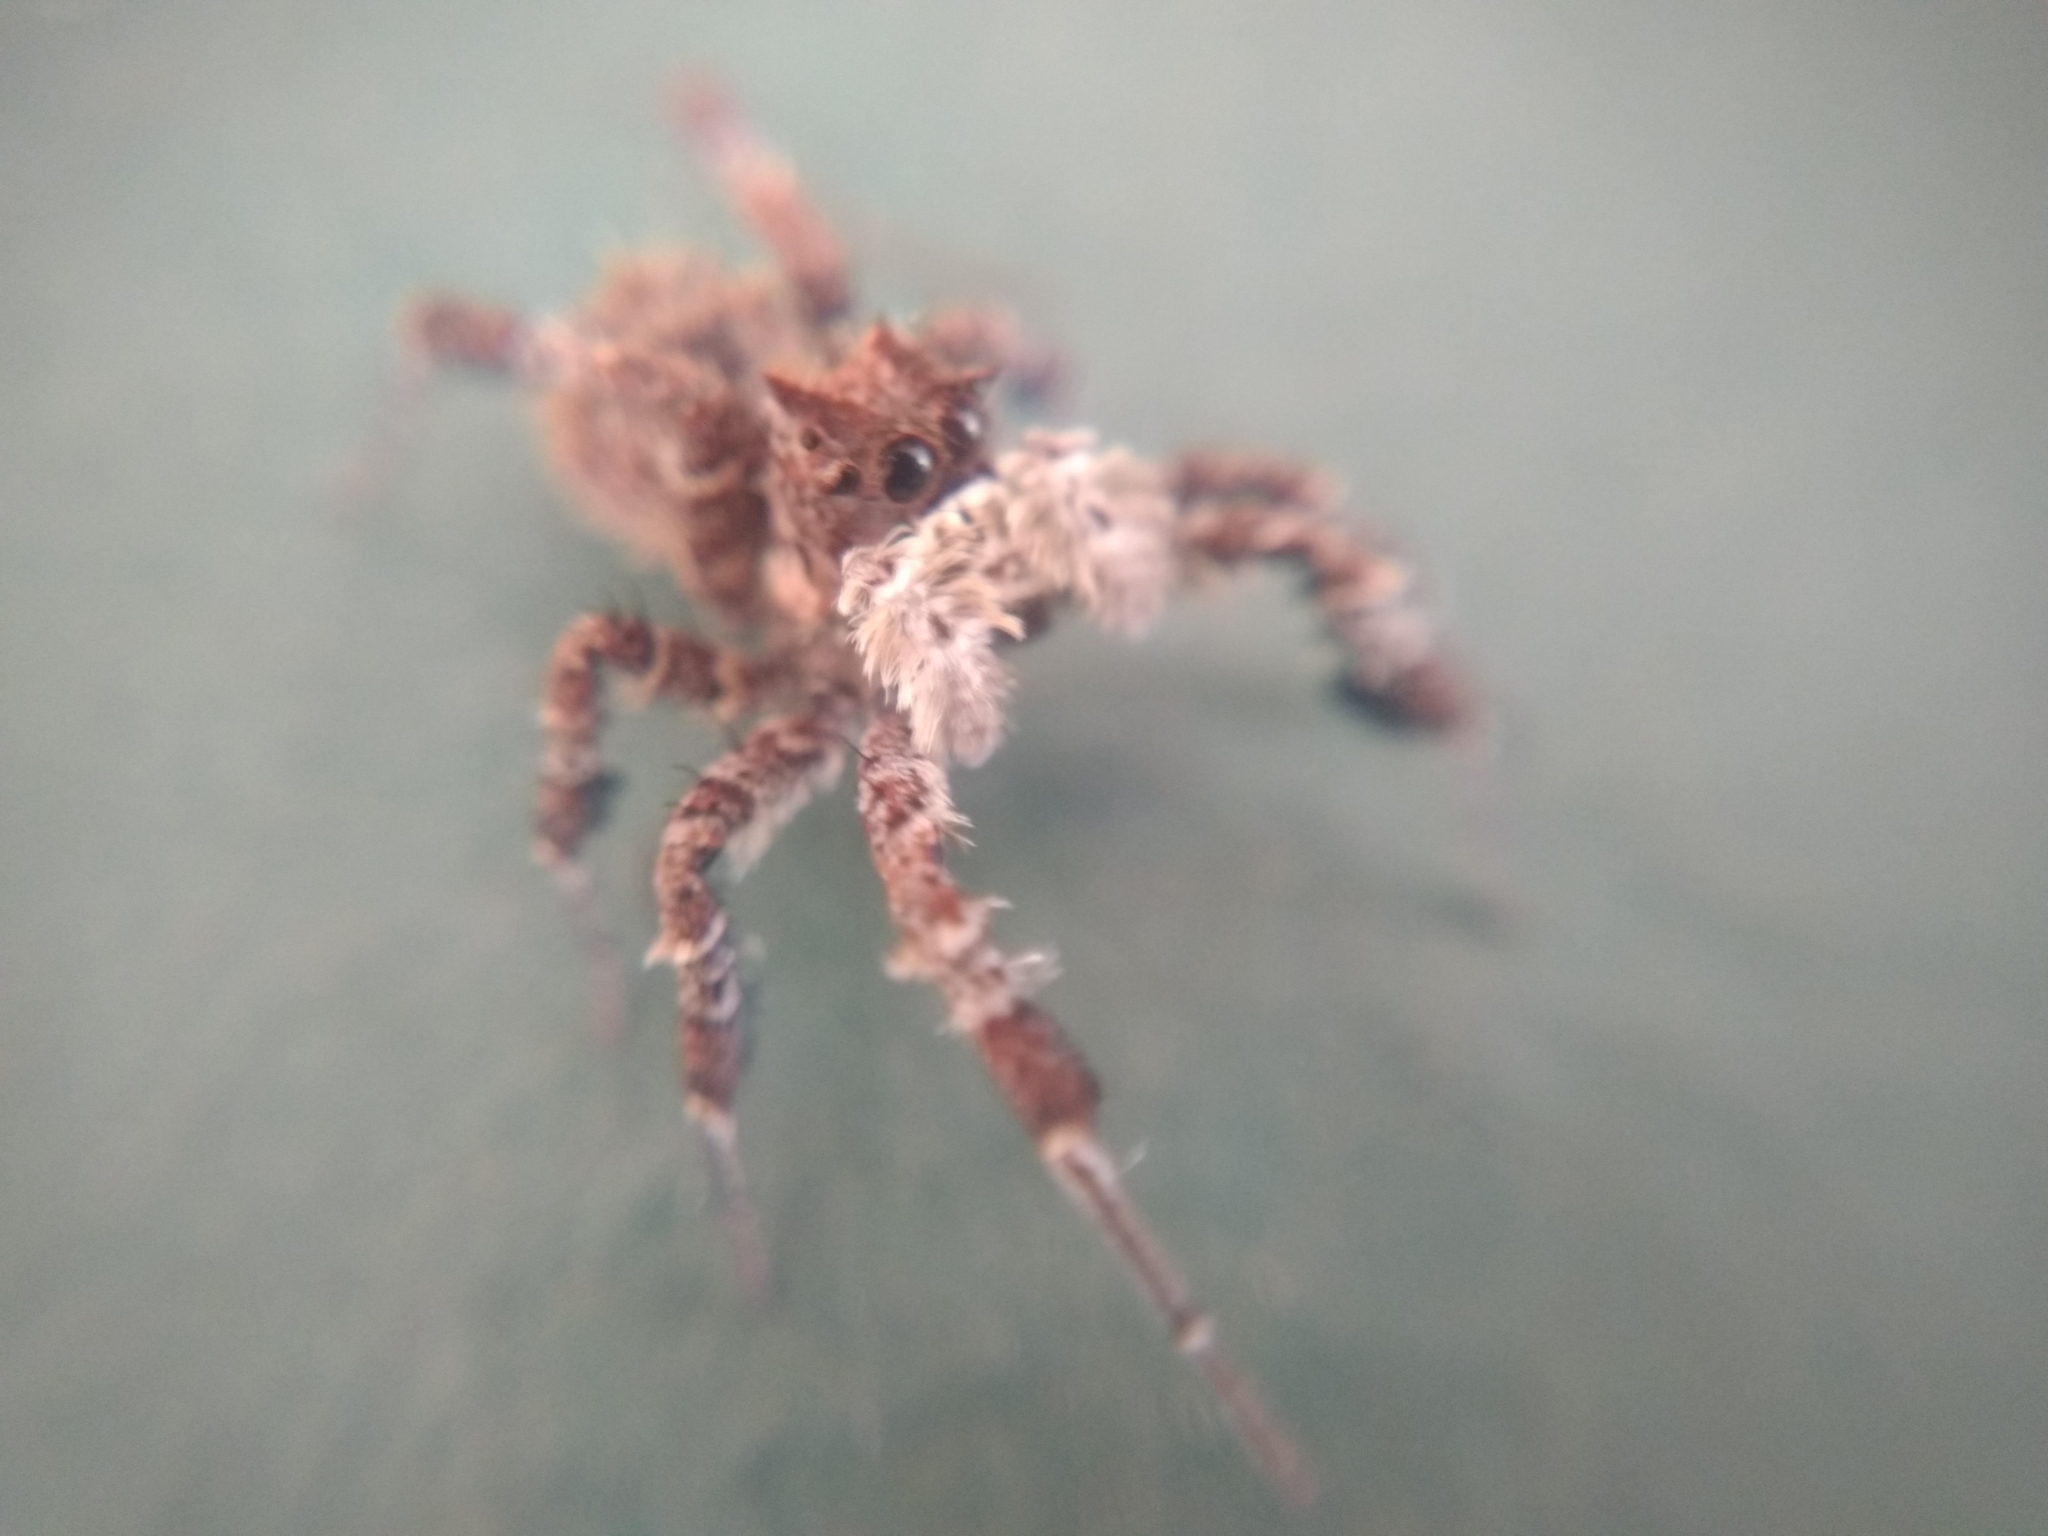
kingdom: Animalia
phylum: Arthropoda
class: Arachnida
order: Araneae
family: Salticidae
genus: Portia
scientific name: Portia schultzi
